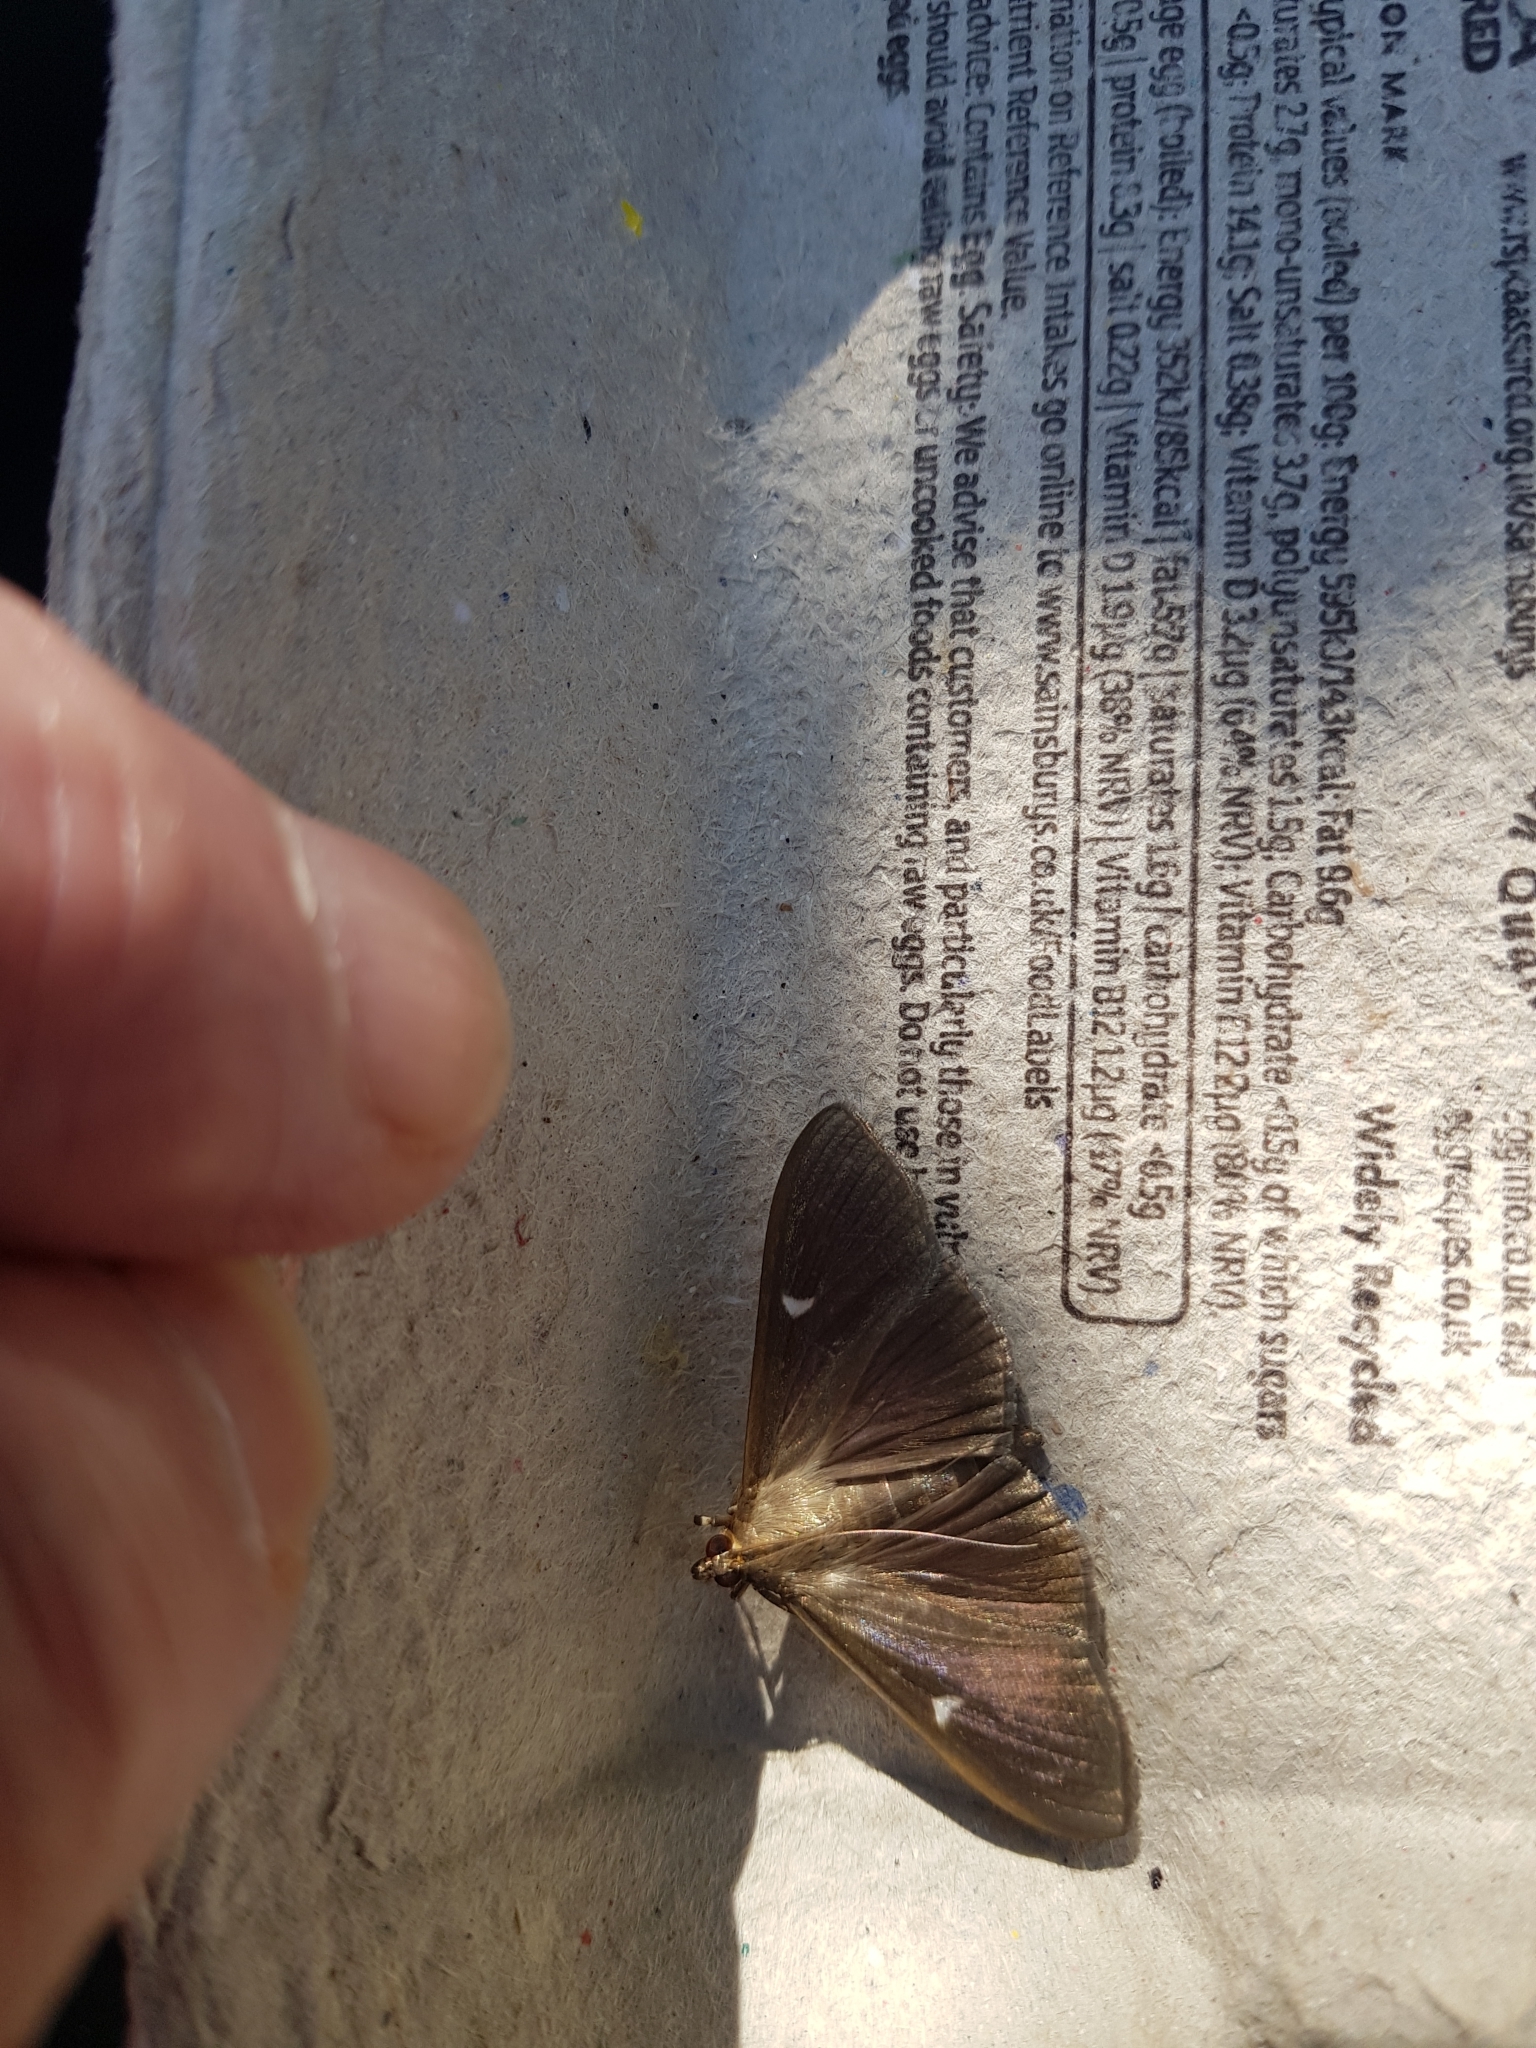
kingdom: Animalia
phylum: Arthropoda
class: Insecta
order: Lepidoptera
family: Crambidae
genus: Cydalima
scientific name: Cydalima perspectalis
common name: Box tree moth
